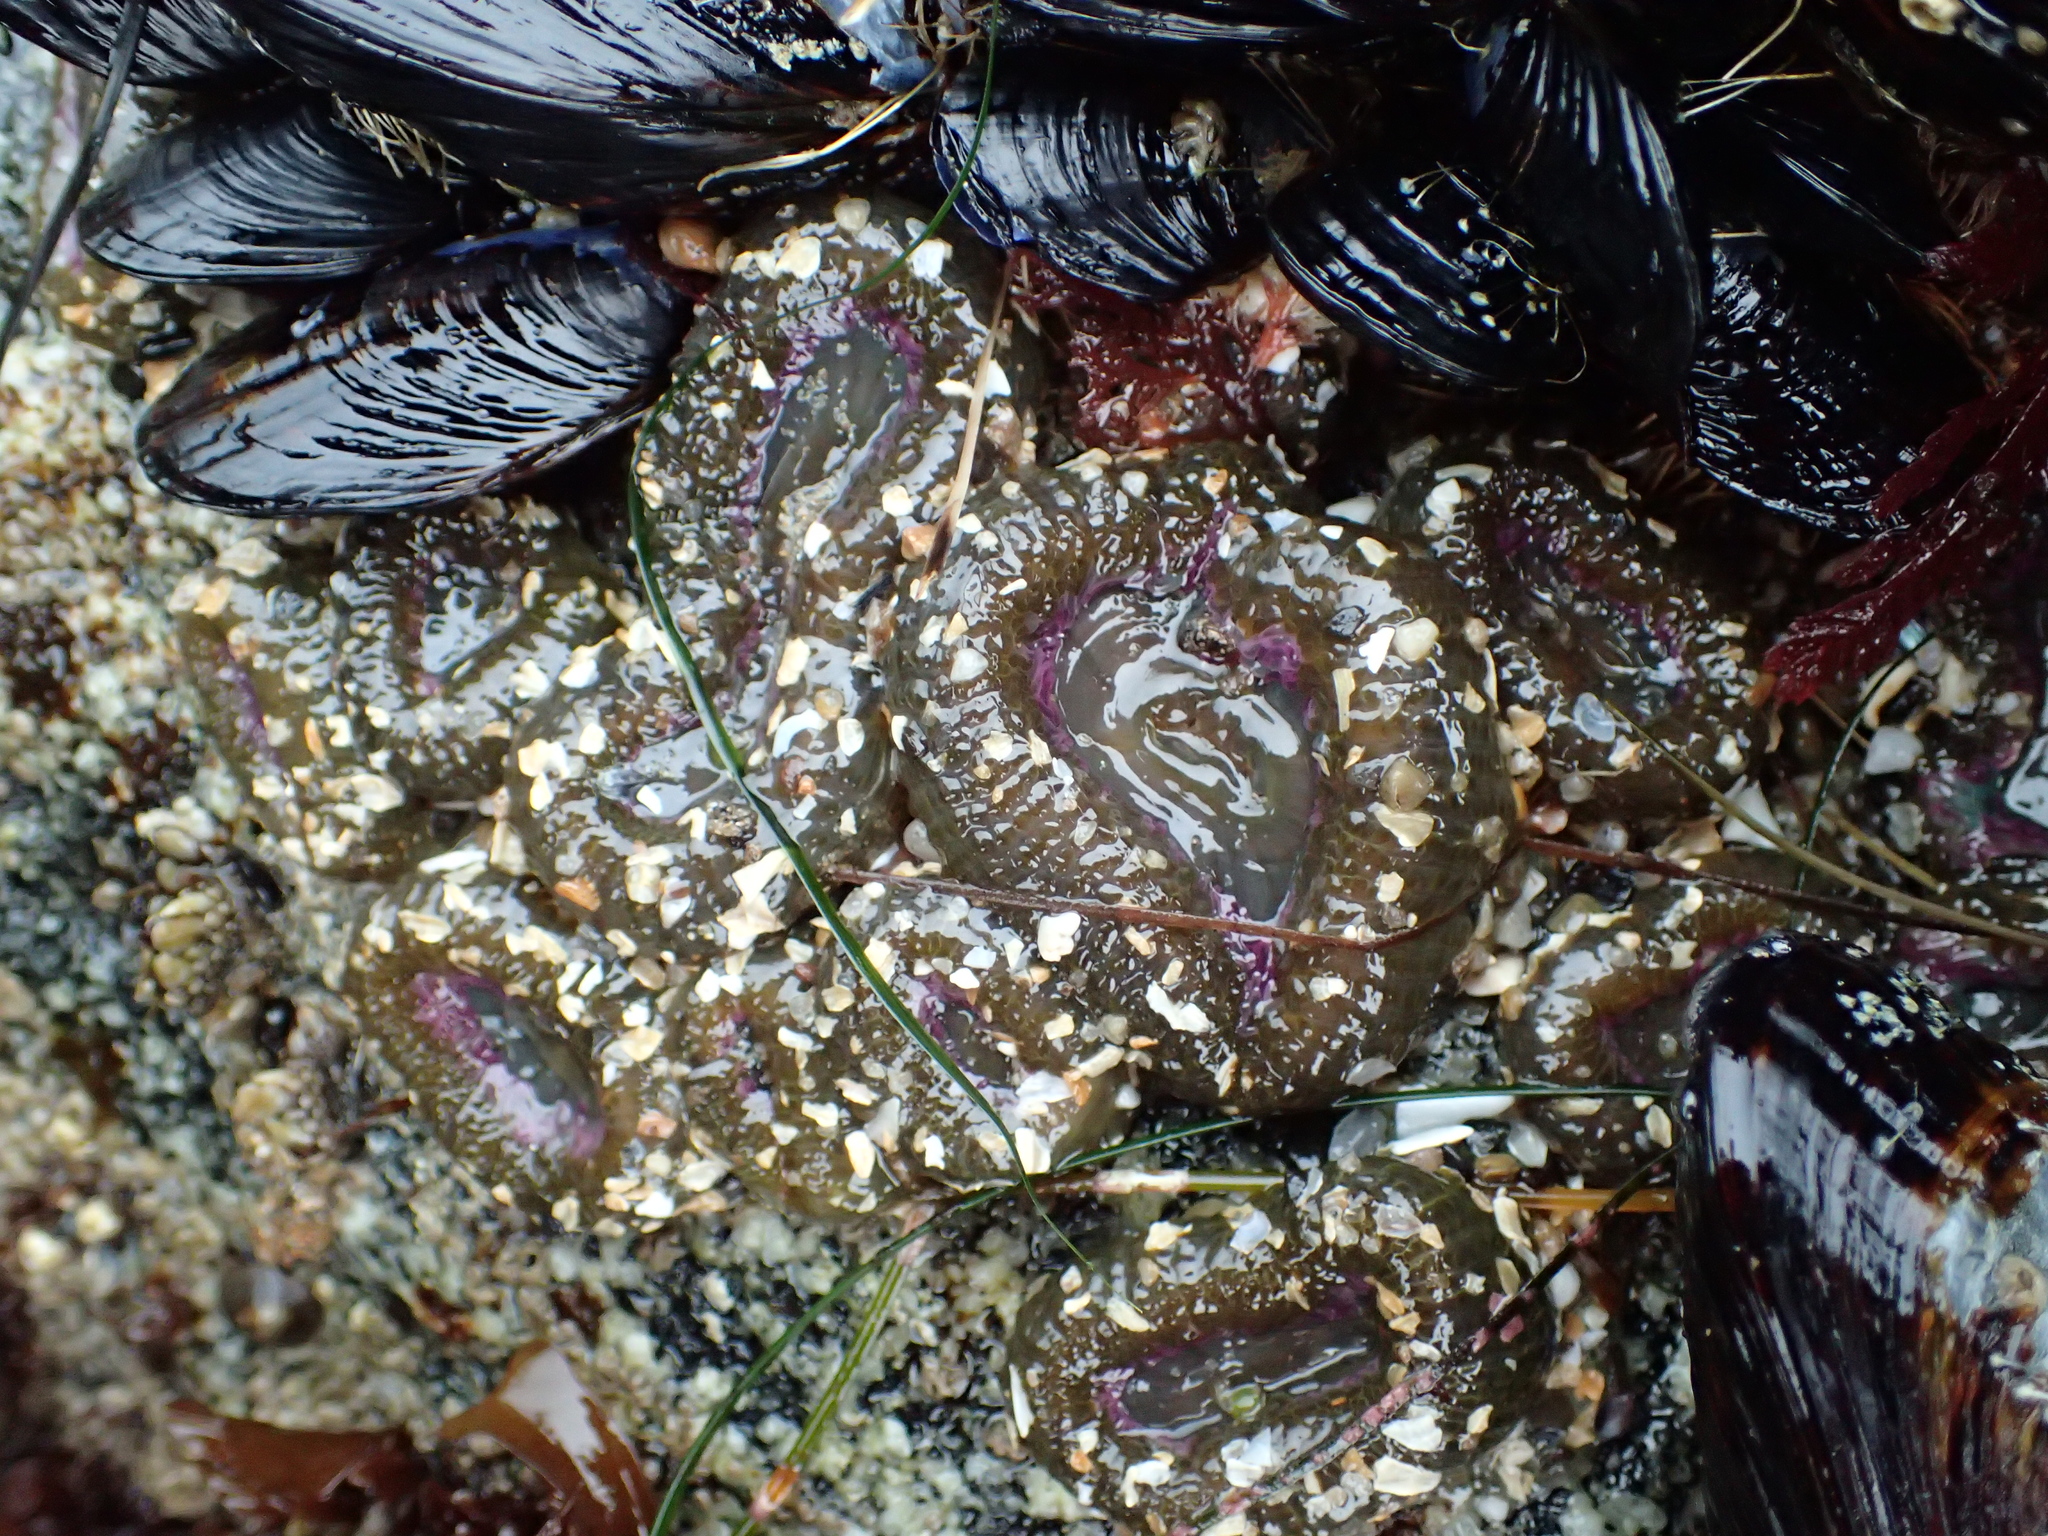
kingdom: Animalia
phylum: Cnidaria
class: Anthozoa
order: Actiniaria
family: Actiniidae
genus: Anthopleura
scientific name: Anthopleura elegantissima
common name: Clonal anemone
